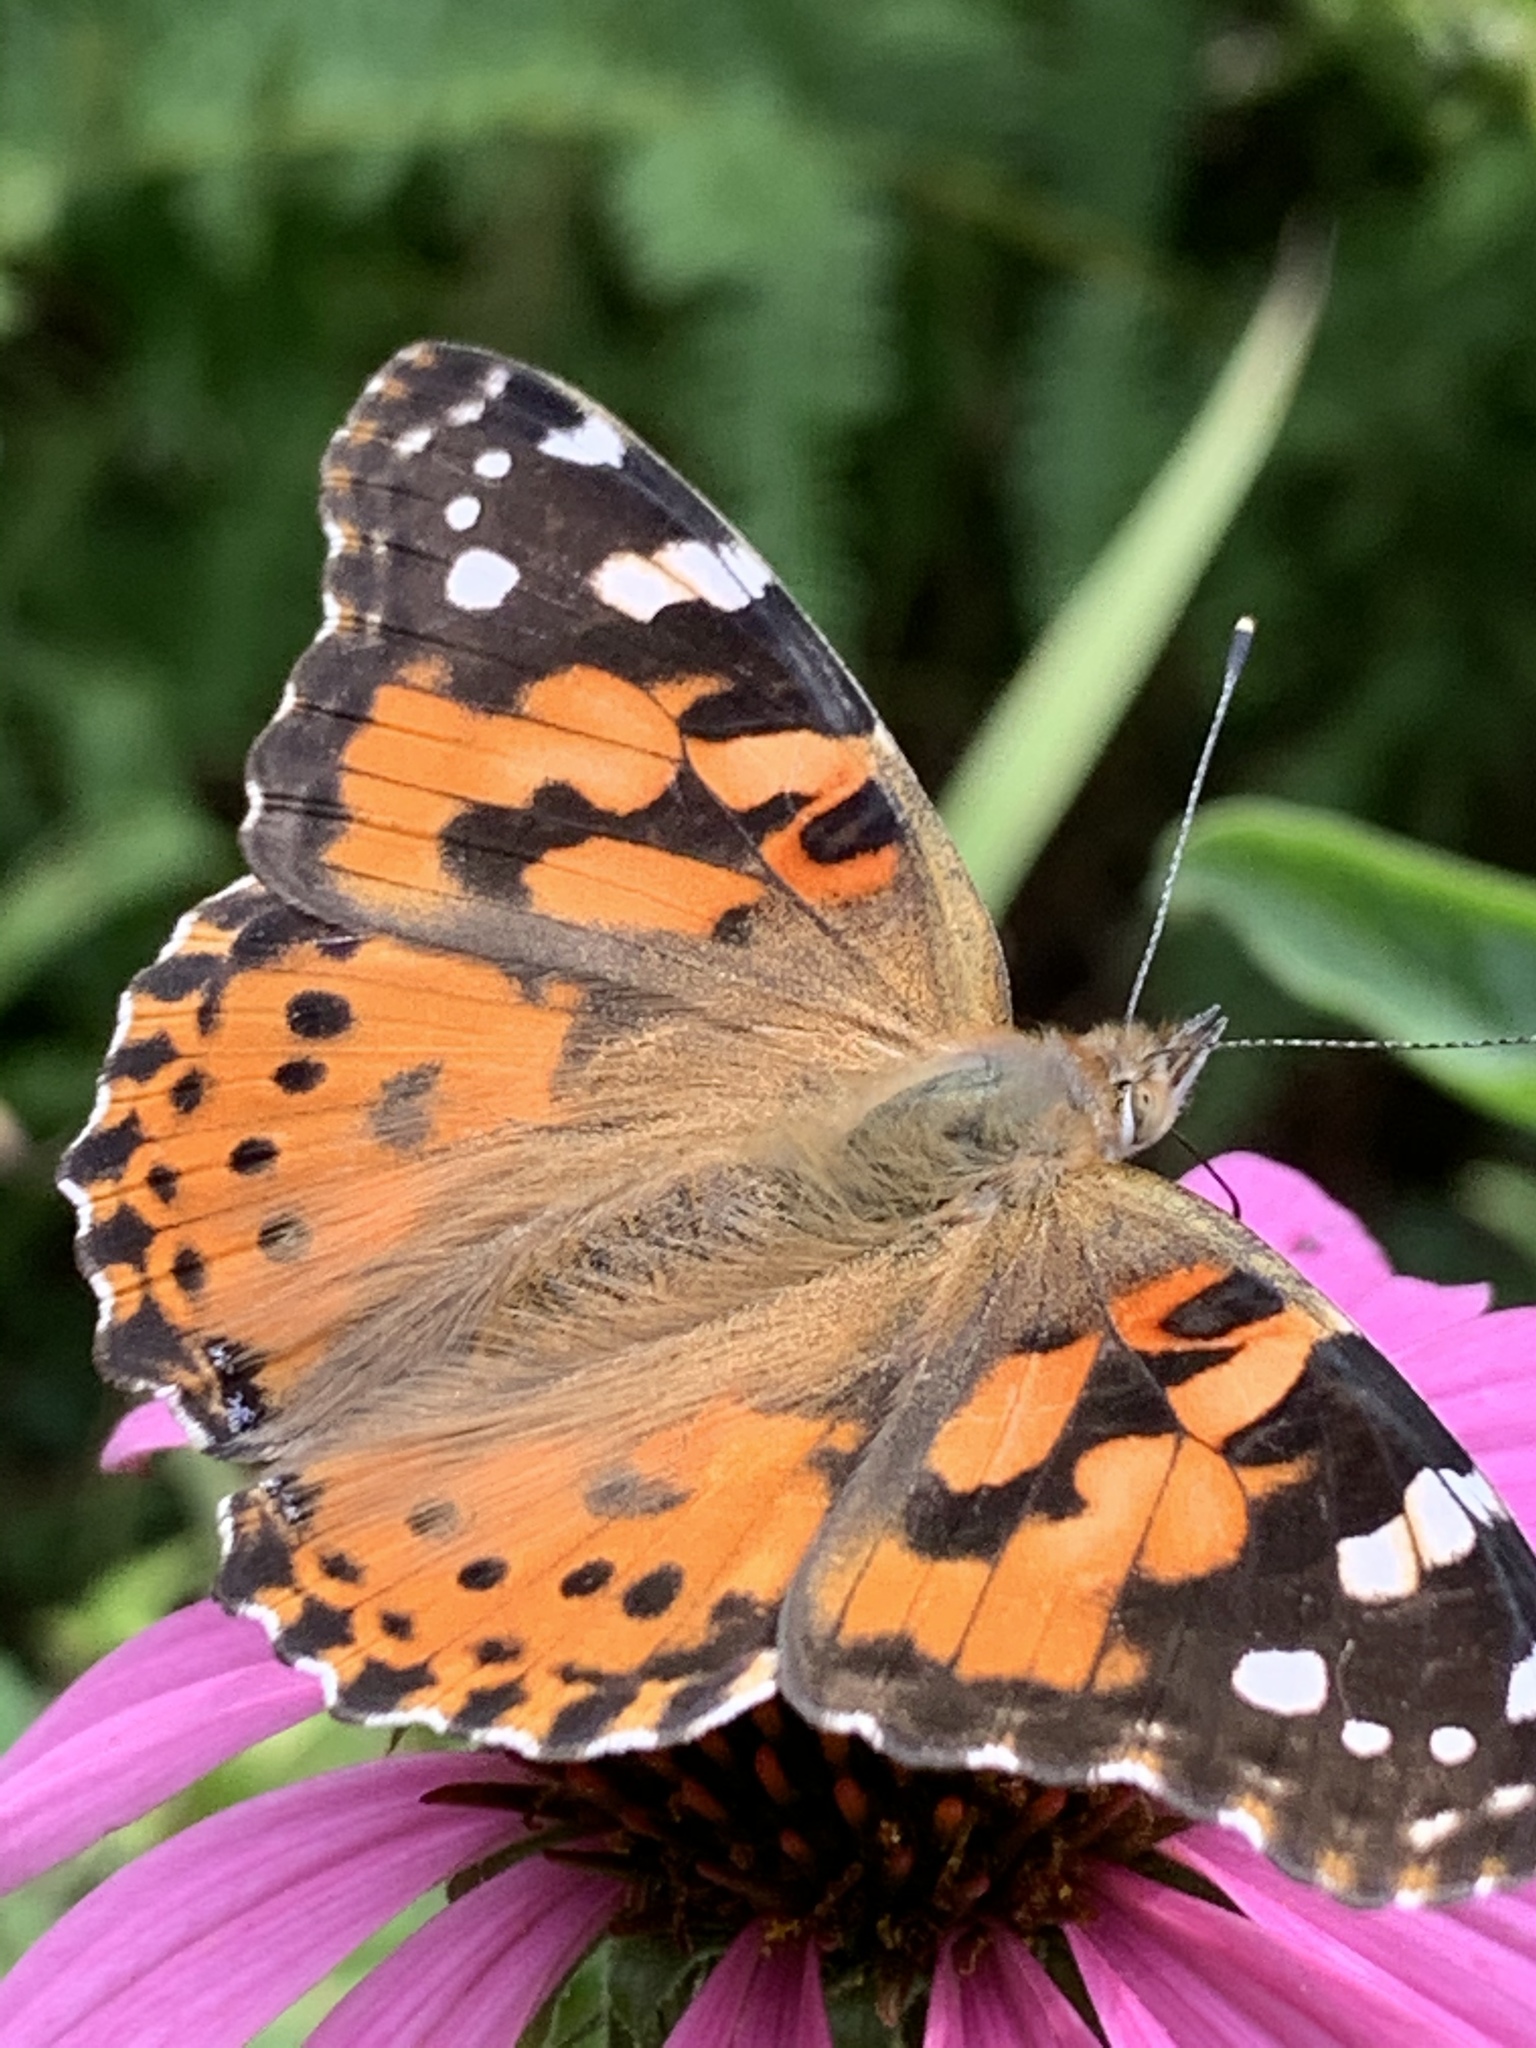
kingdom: Animalia
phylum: Arthropoda
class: Insecta
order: Lepidoptera
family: Nymphalidae
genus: Vanessa
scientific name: Vanessa cardui
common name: Painted lady
